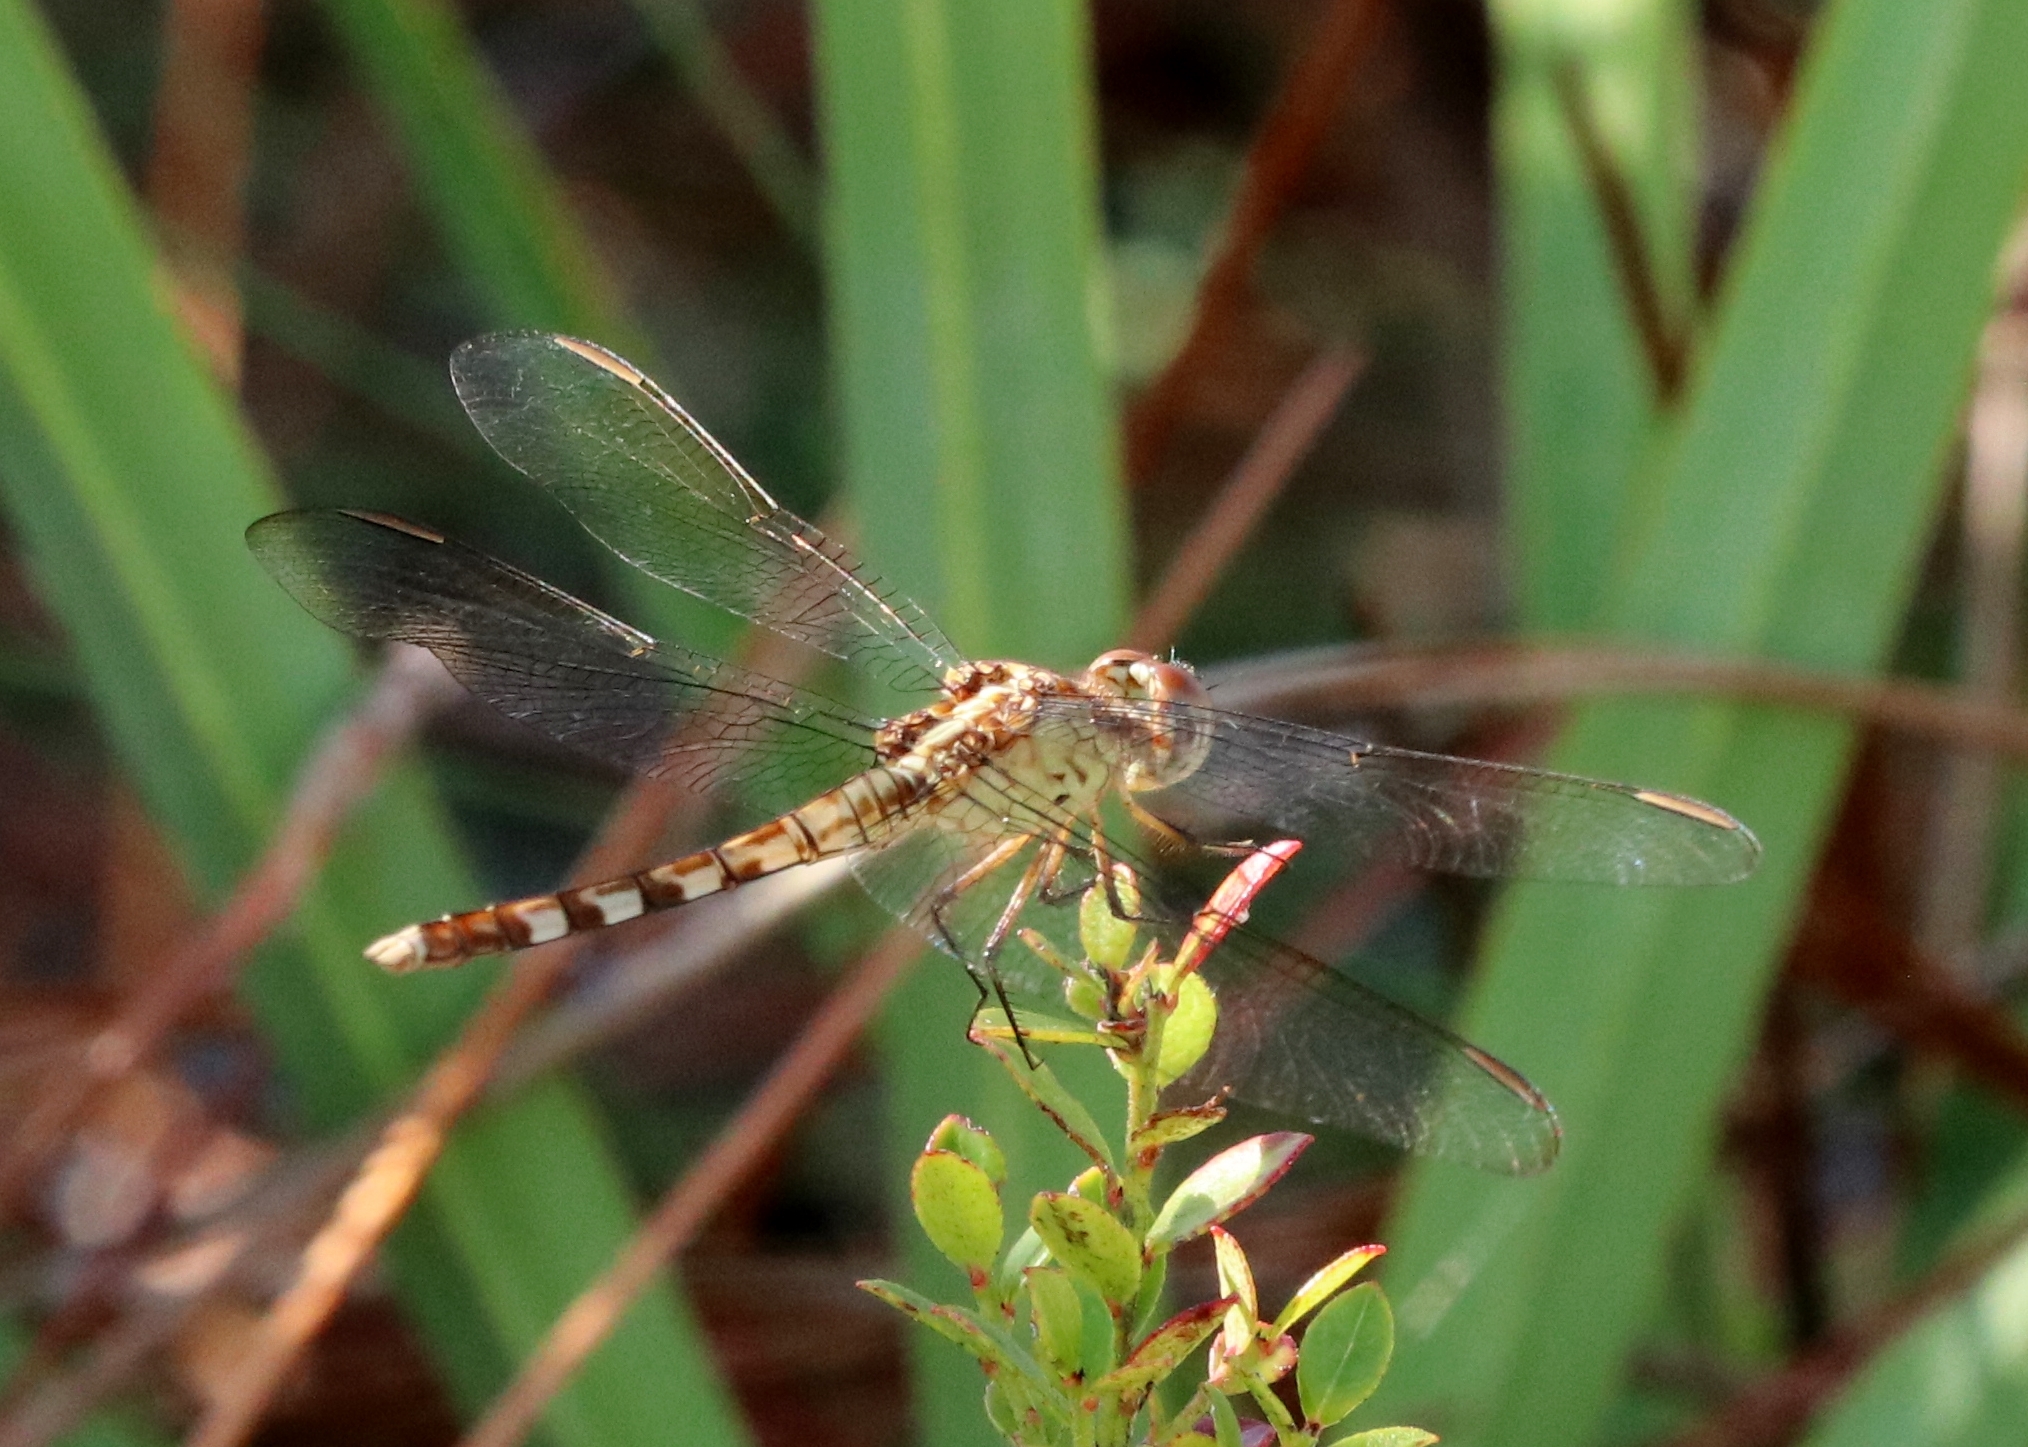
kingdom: Animalia
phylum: Arthropoda
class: Insecta
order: Odonata
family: Libellulidae
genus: Erythrodiplax
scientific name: Erythrodiplax umbrata
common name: Band-winged dragonlet
